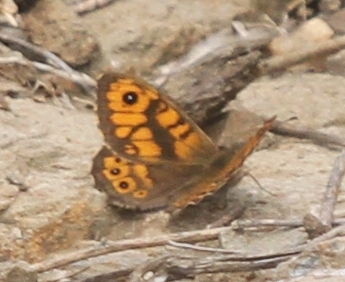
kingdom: Animalia
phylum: Arthropoda
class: Insecta
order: Lepidoptera
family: Nymphalidae
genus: Pararge
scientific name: Pararge Lasiommata megera
